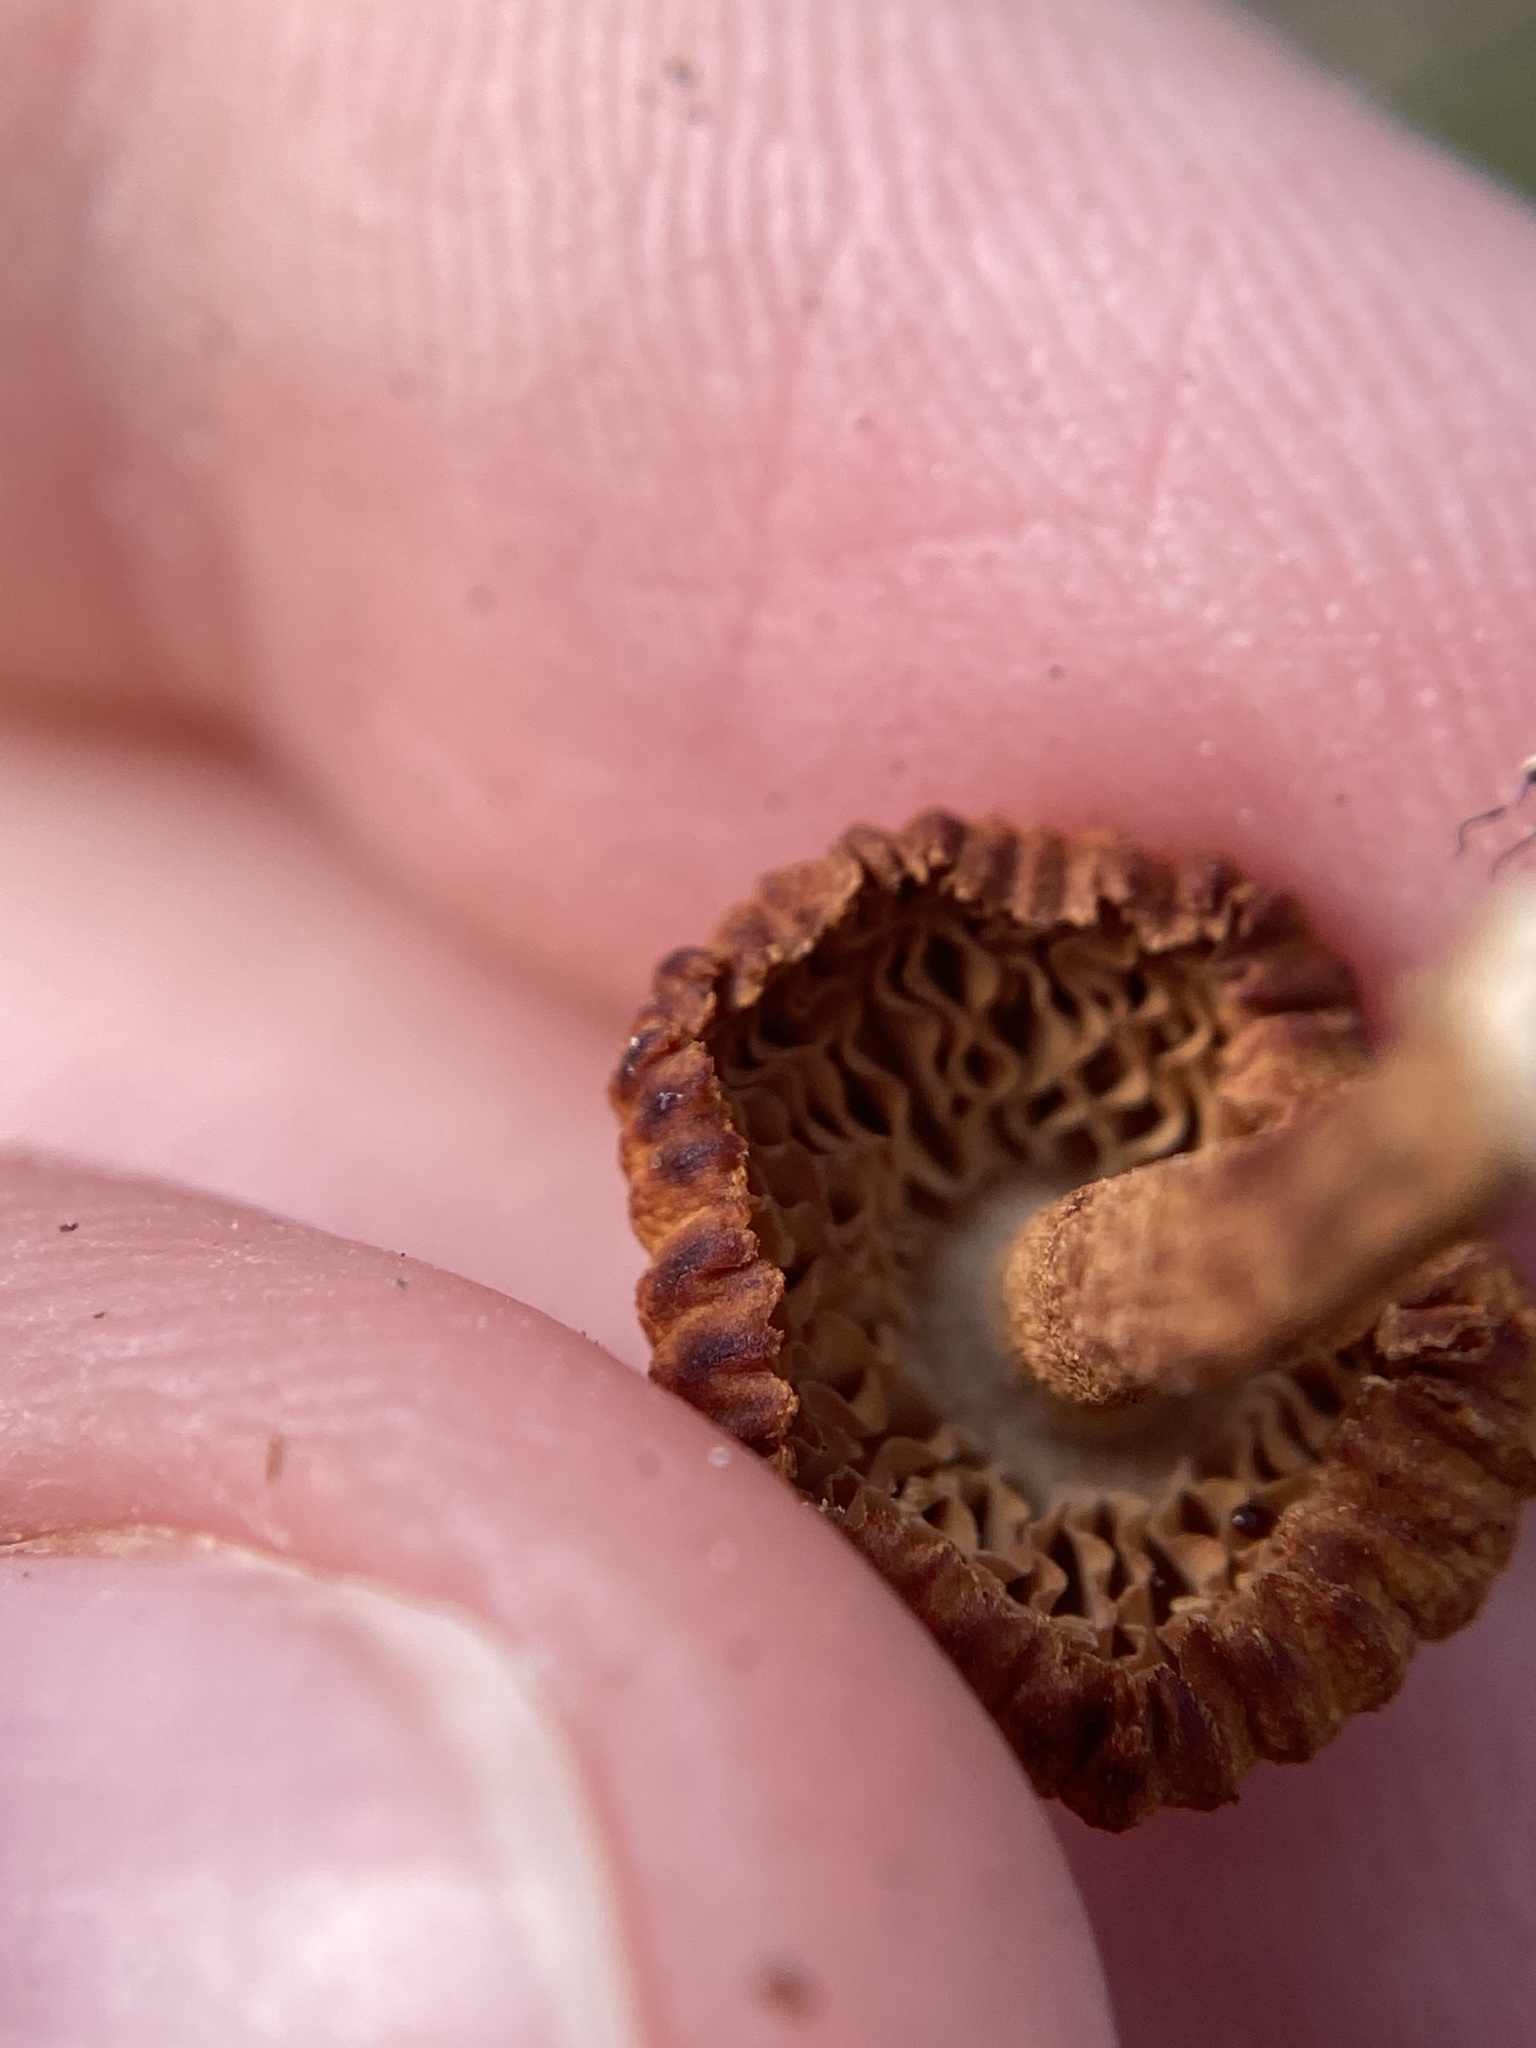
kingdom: Fungi
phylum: Basidiomycota
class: Agaricomycetes
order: Gloeophyllales
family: Gloeophyllaceae
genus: Heliocybe
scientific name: Heliocybe sulcata
